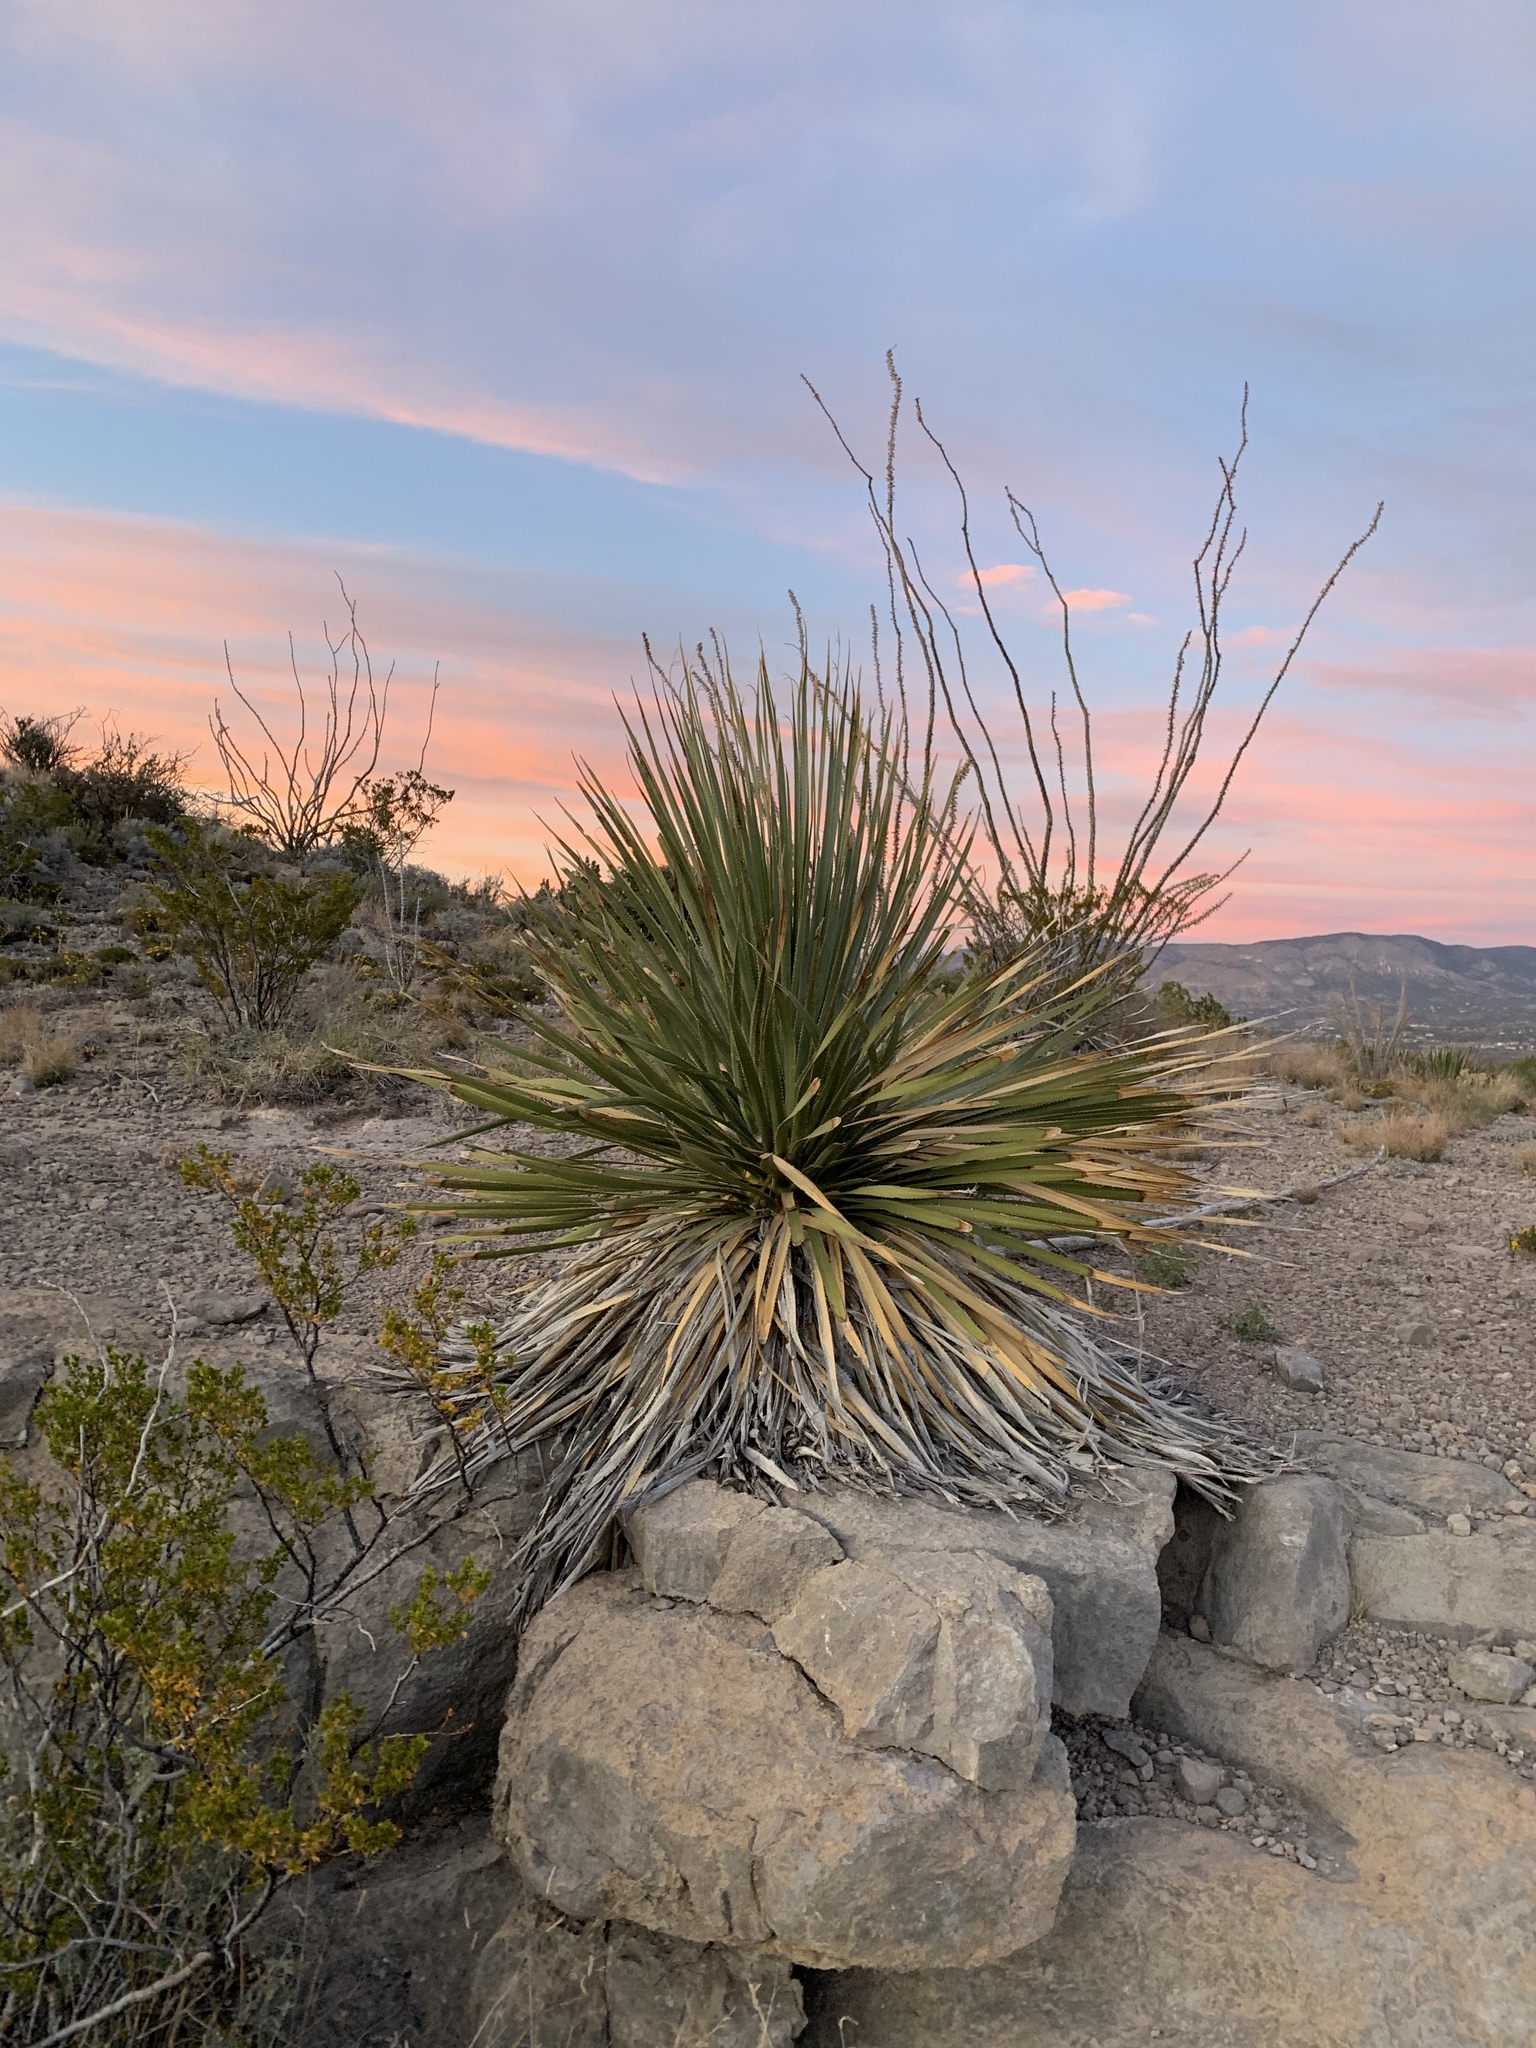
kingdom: Plantae
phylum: Tracheophyta
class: Liliopsida
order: Asparagales
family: Asparagaceae
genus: Dasylirion
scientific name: Dasylirion wheeleri
